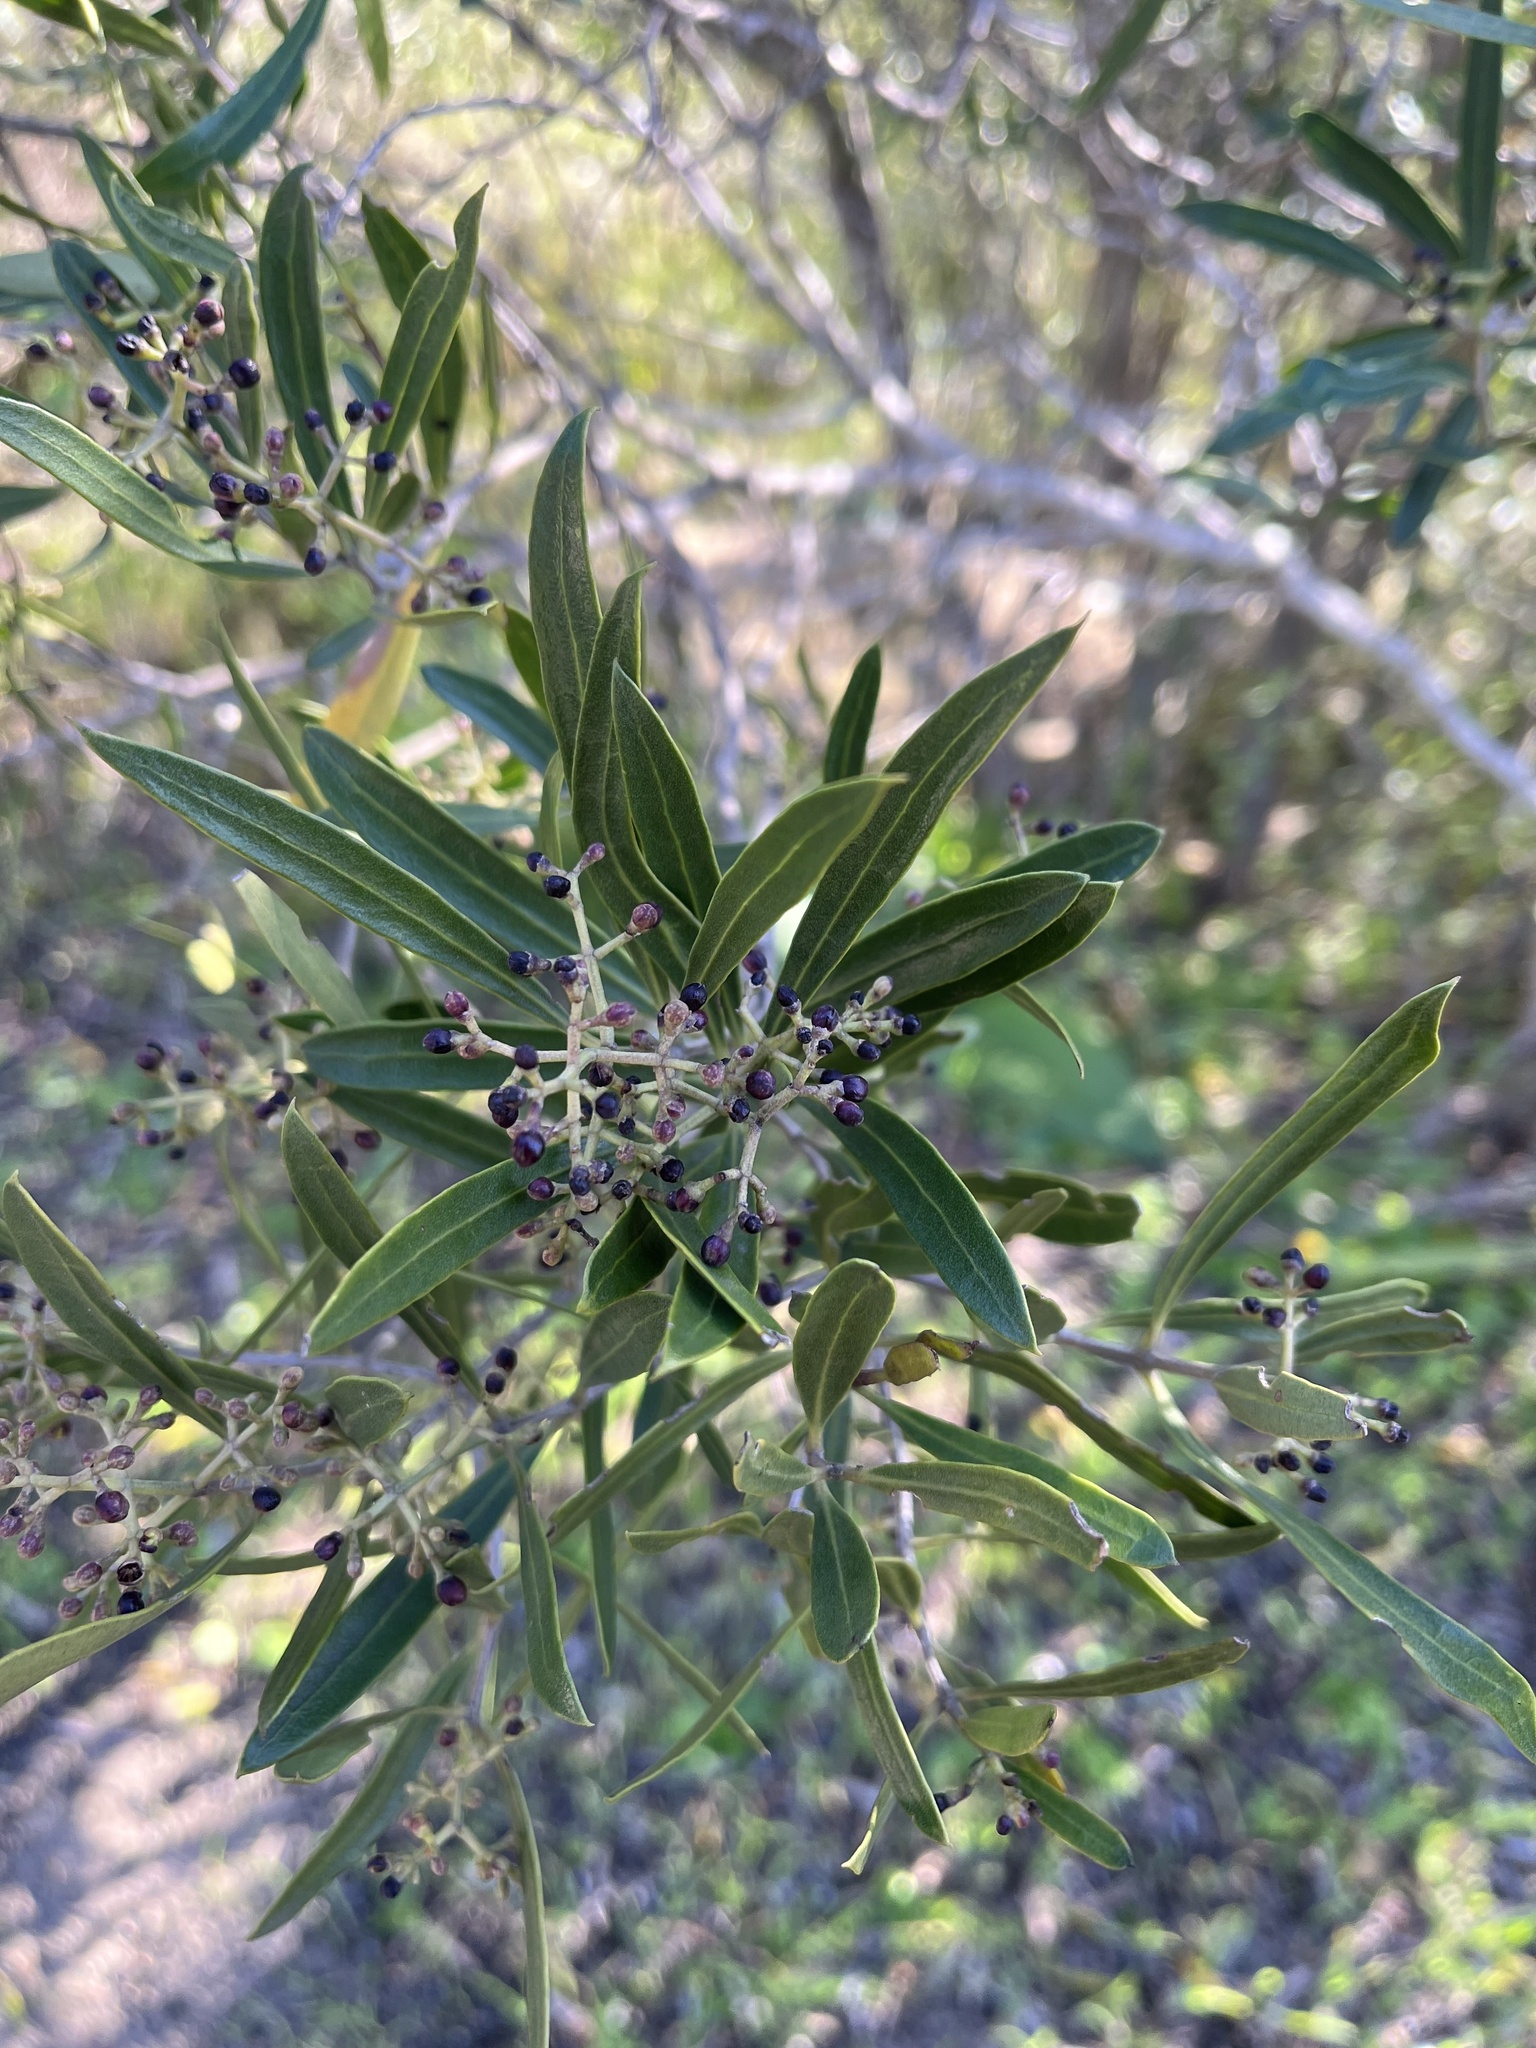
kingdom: Plantae
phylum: Tracheophyta
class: Magnoliopsida
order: Lamiales
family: Oleaceae
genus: Olea
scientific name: Olea exasperata
